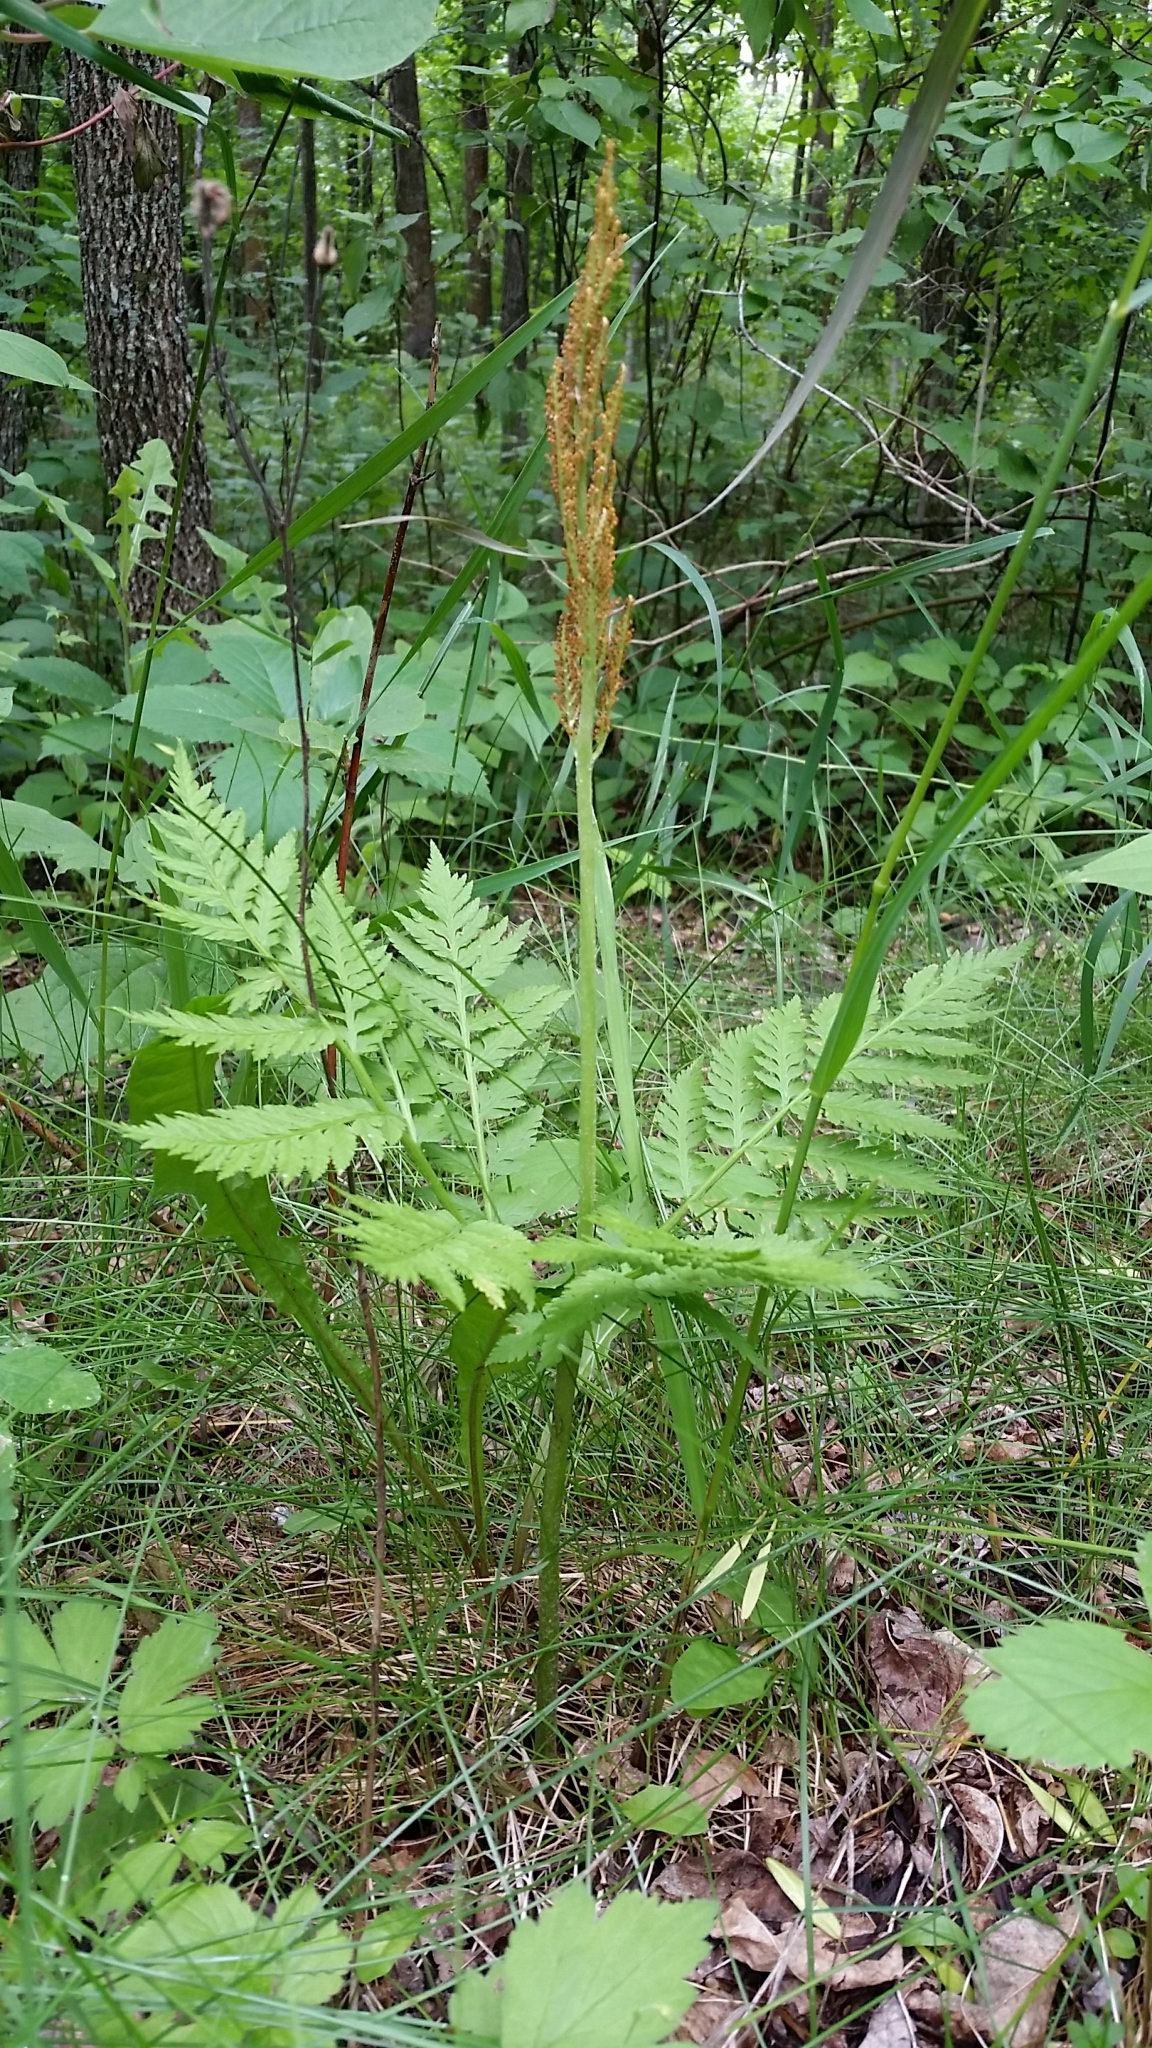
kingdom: Plantae
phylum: Tracheophyta
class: Polypodiopsida
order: Ophioglossales
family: Ophioglossaceae
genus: Botrypus
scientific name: Botrypus virginianus
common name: Common grapefern
